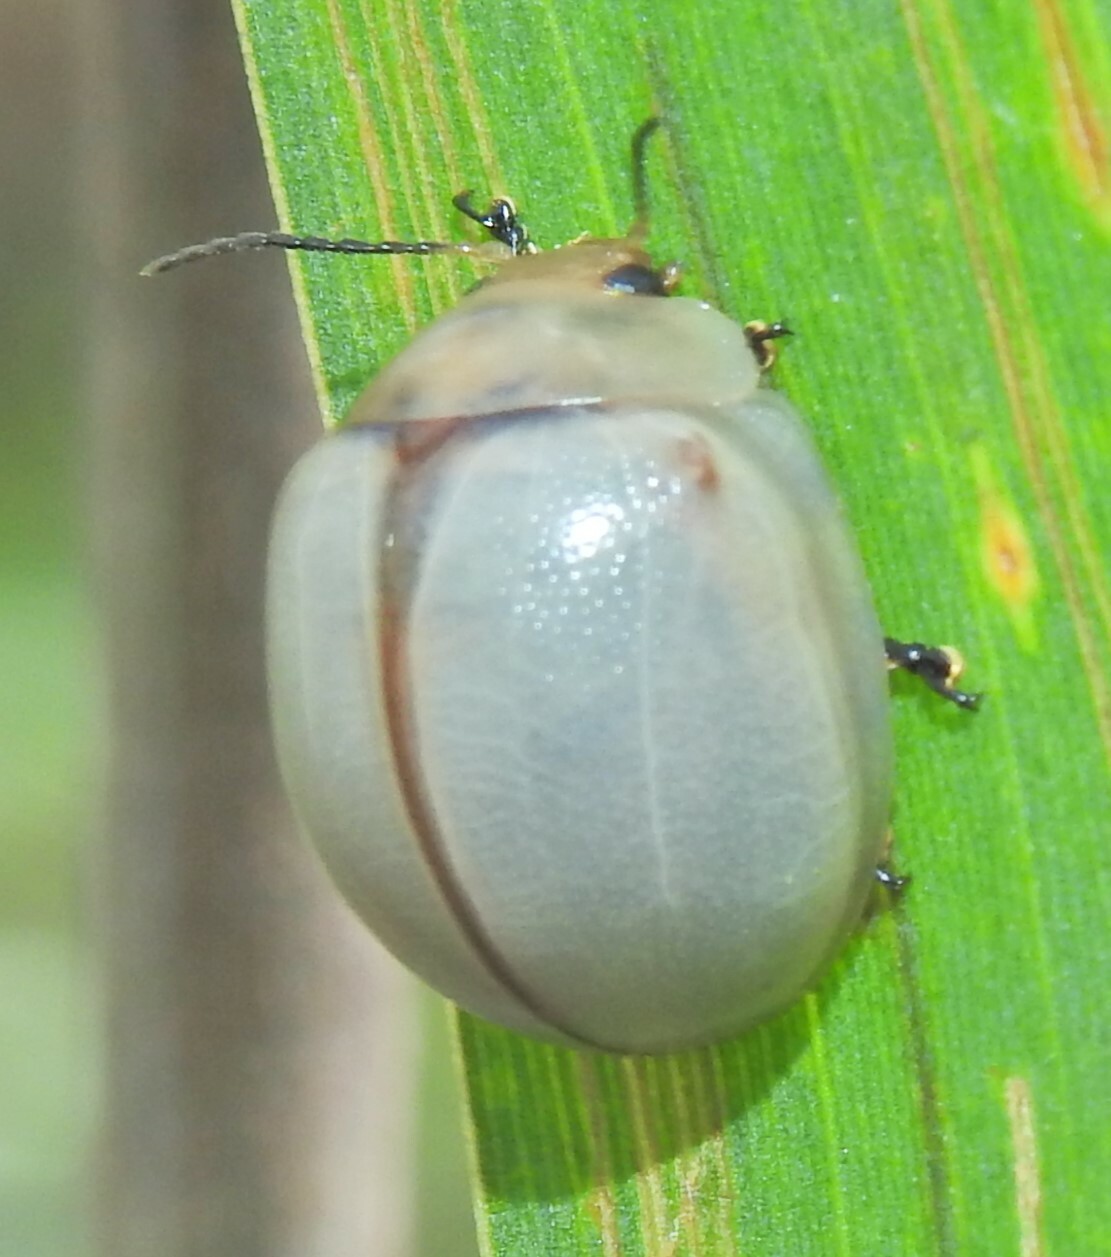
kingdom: Animalia
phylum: Arthropoda
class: Insecta
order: Coleoptera
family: Chrysomelidae
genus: Dicranosterna
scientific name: Dicranosterna
